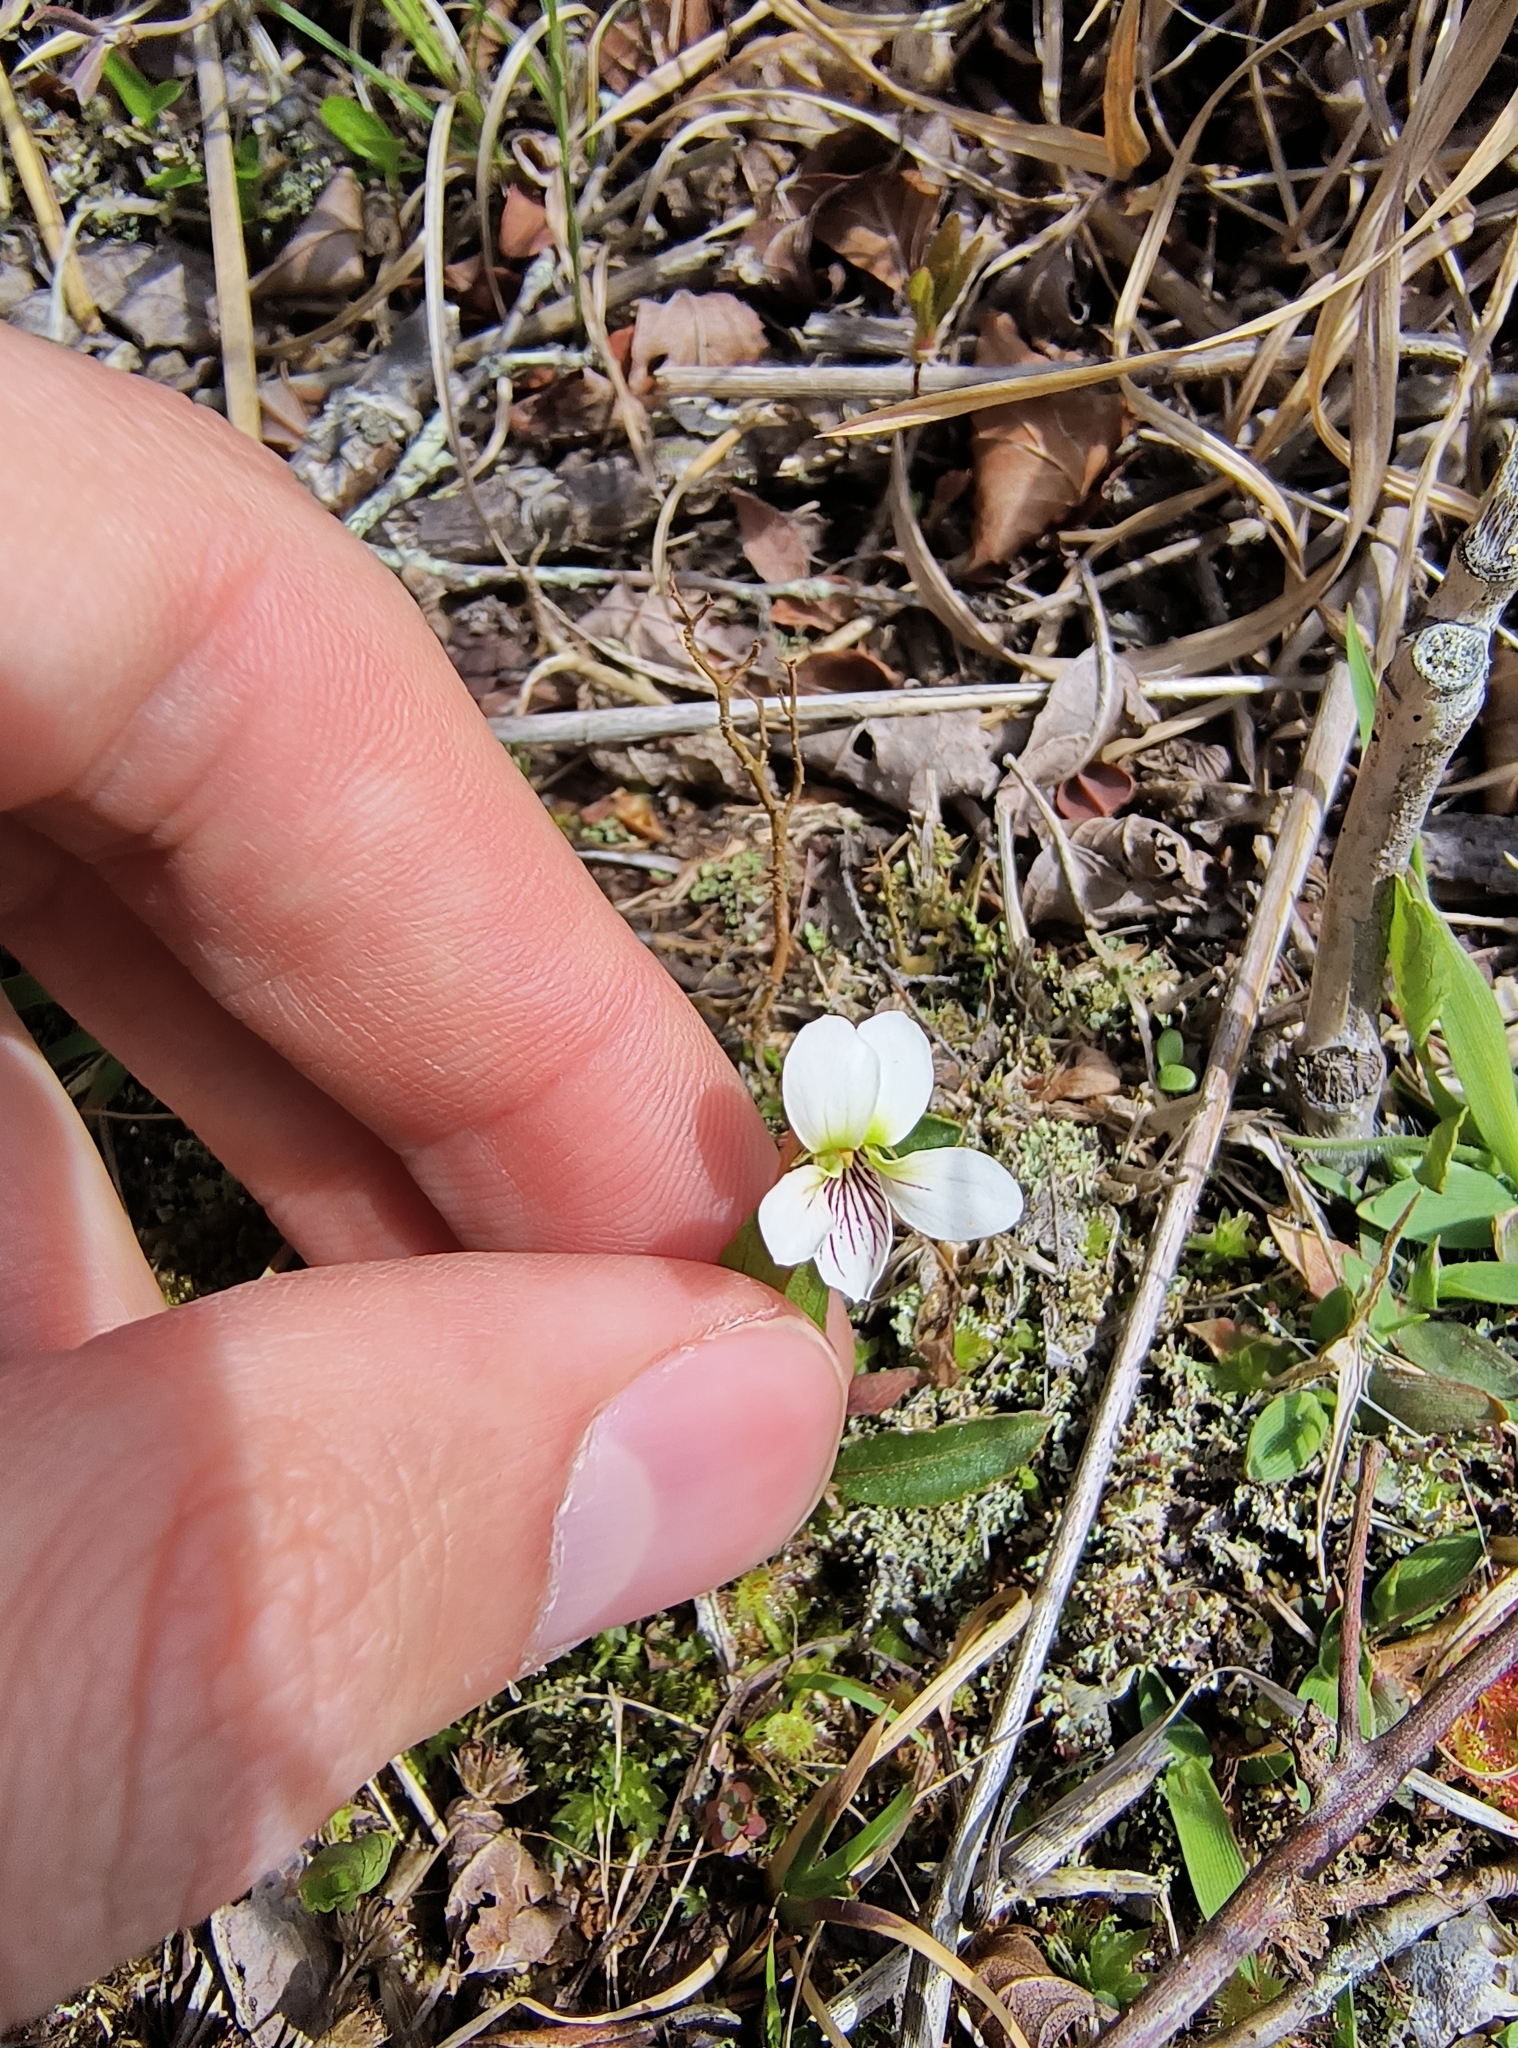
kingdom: Plantae
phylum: Tracheophyta
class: Magnoliopsida
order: Malpighiales
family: Violaceae
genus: Viola
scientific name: Viola lanceolata
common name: Bog white violet
